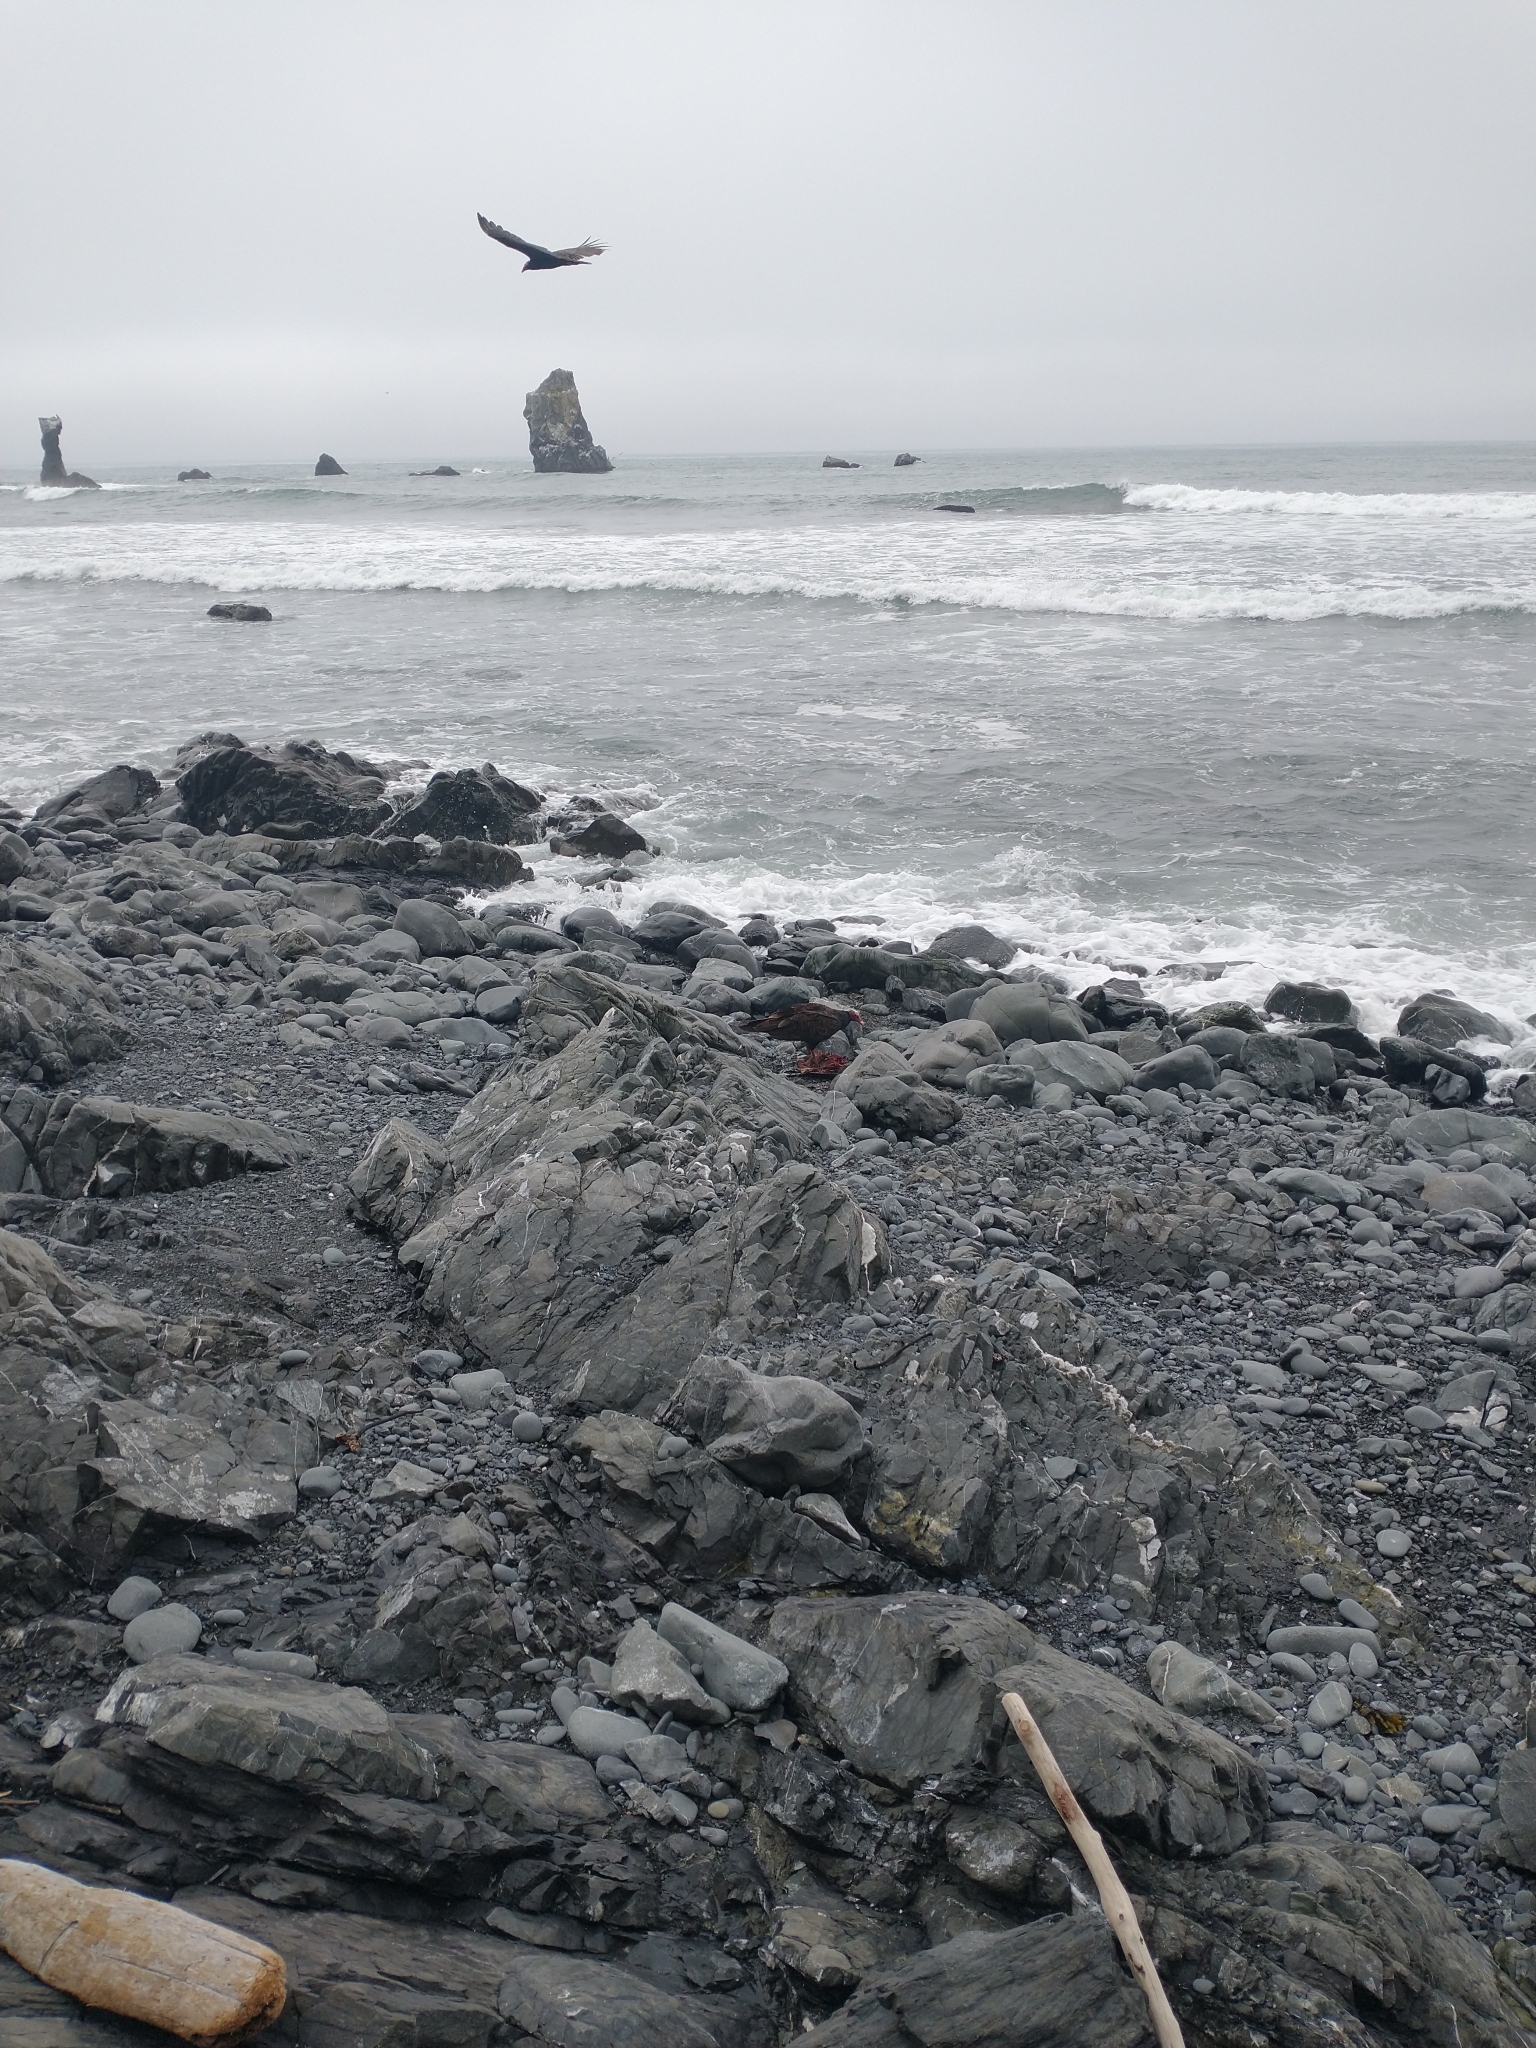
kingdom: Animalia
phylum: Chordata
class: Aves
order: Accipitriformes
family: Cathartidae
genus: Cathartes
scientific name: Cathartes aura
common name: Turkey vulture
